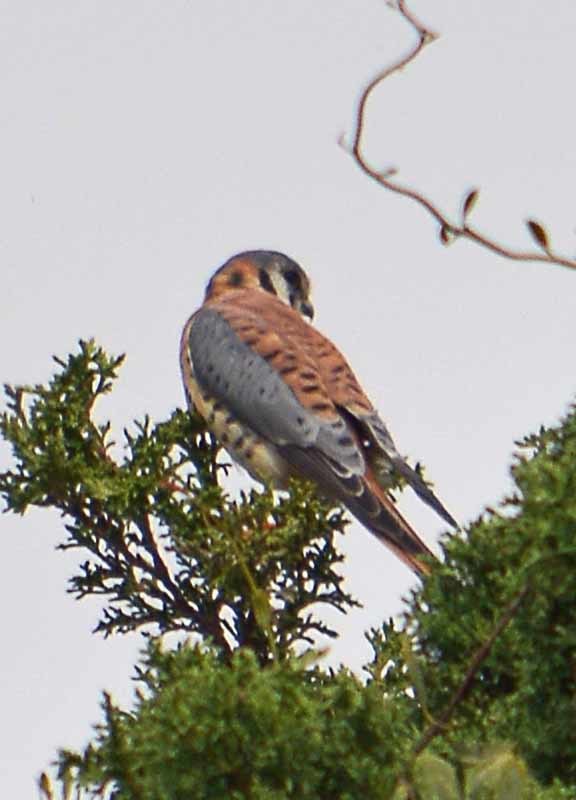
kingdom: Animalia
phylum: Chordata
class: Aves
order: Falconiformes
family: Falconidae
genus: Falco
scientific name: Falco sparverius
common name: American kestrel
